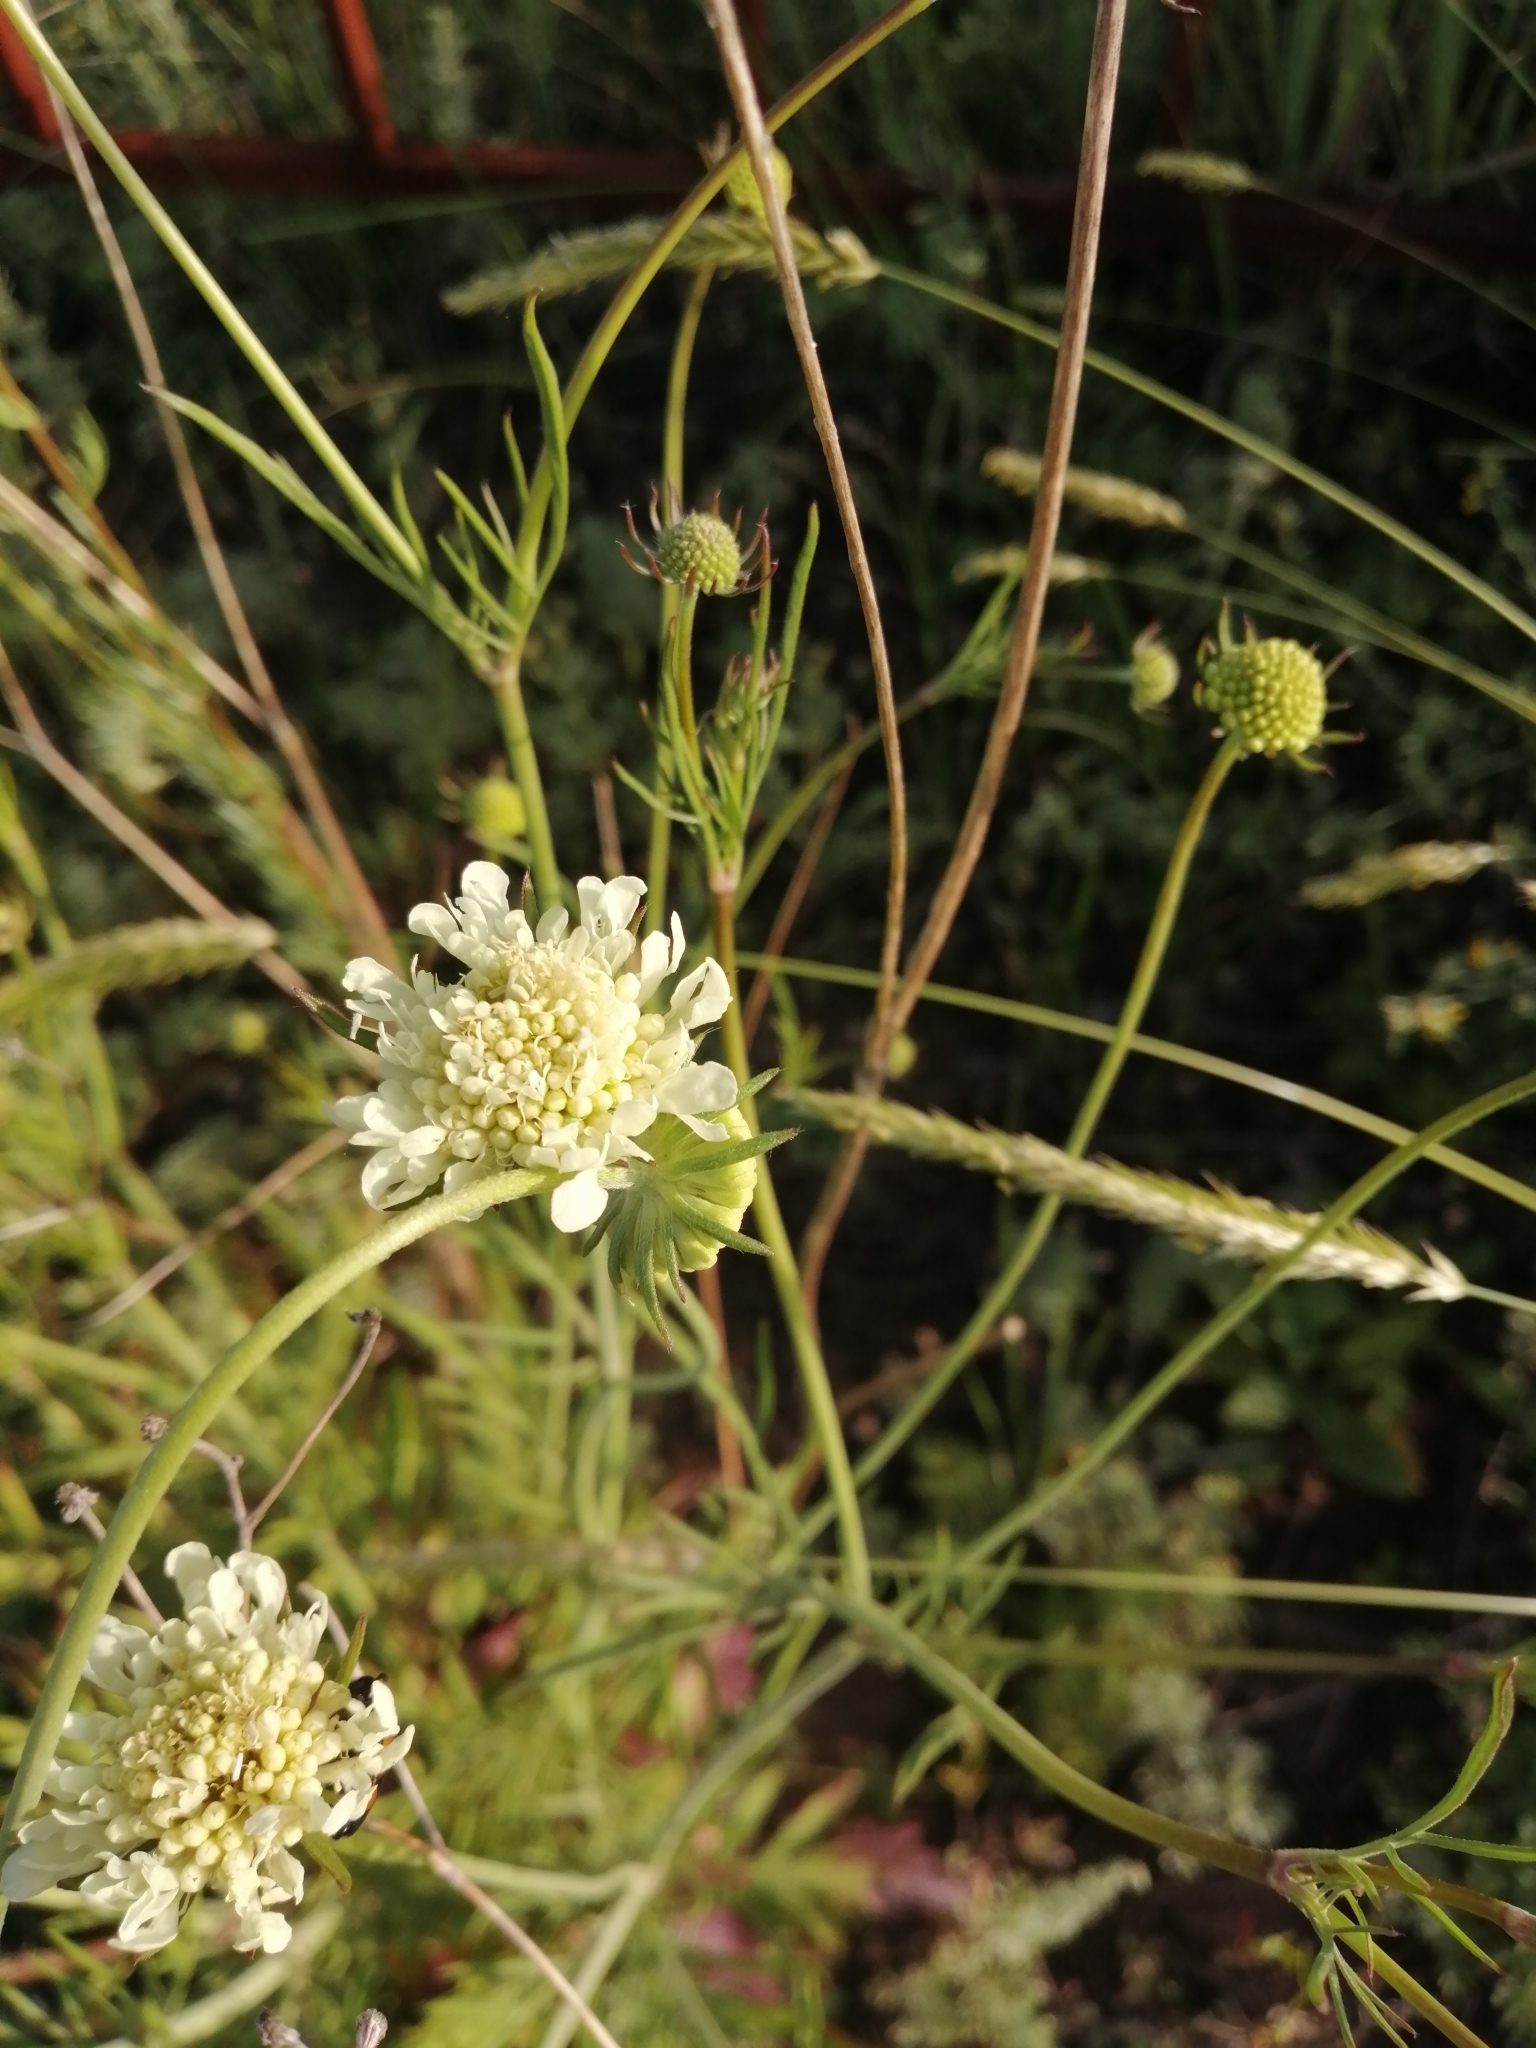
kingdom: Plantae
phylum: Tracheophyta
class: Magnoliopsida
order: Dipsacales
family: Caprifoliaceae
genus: Scabiosa
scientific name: Scabiosa ochroleuca
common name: Cream pincushions
